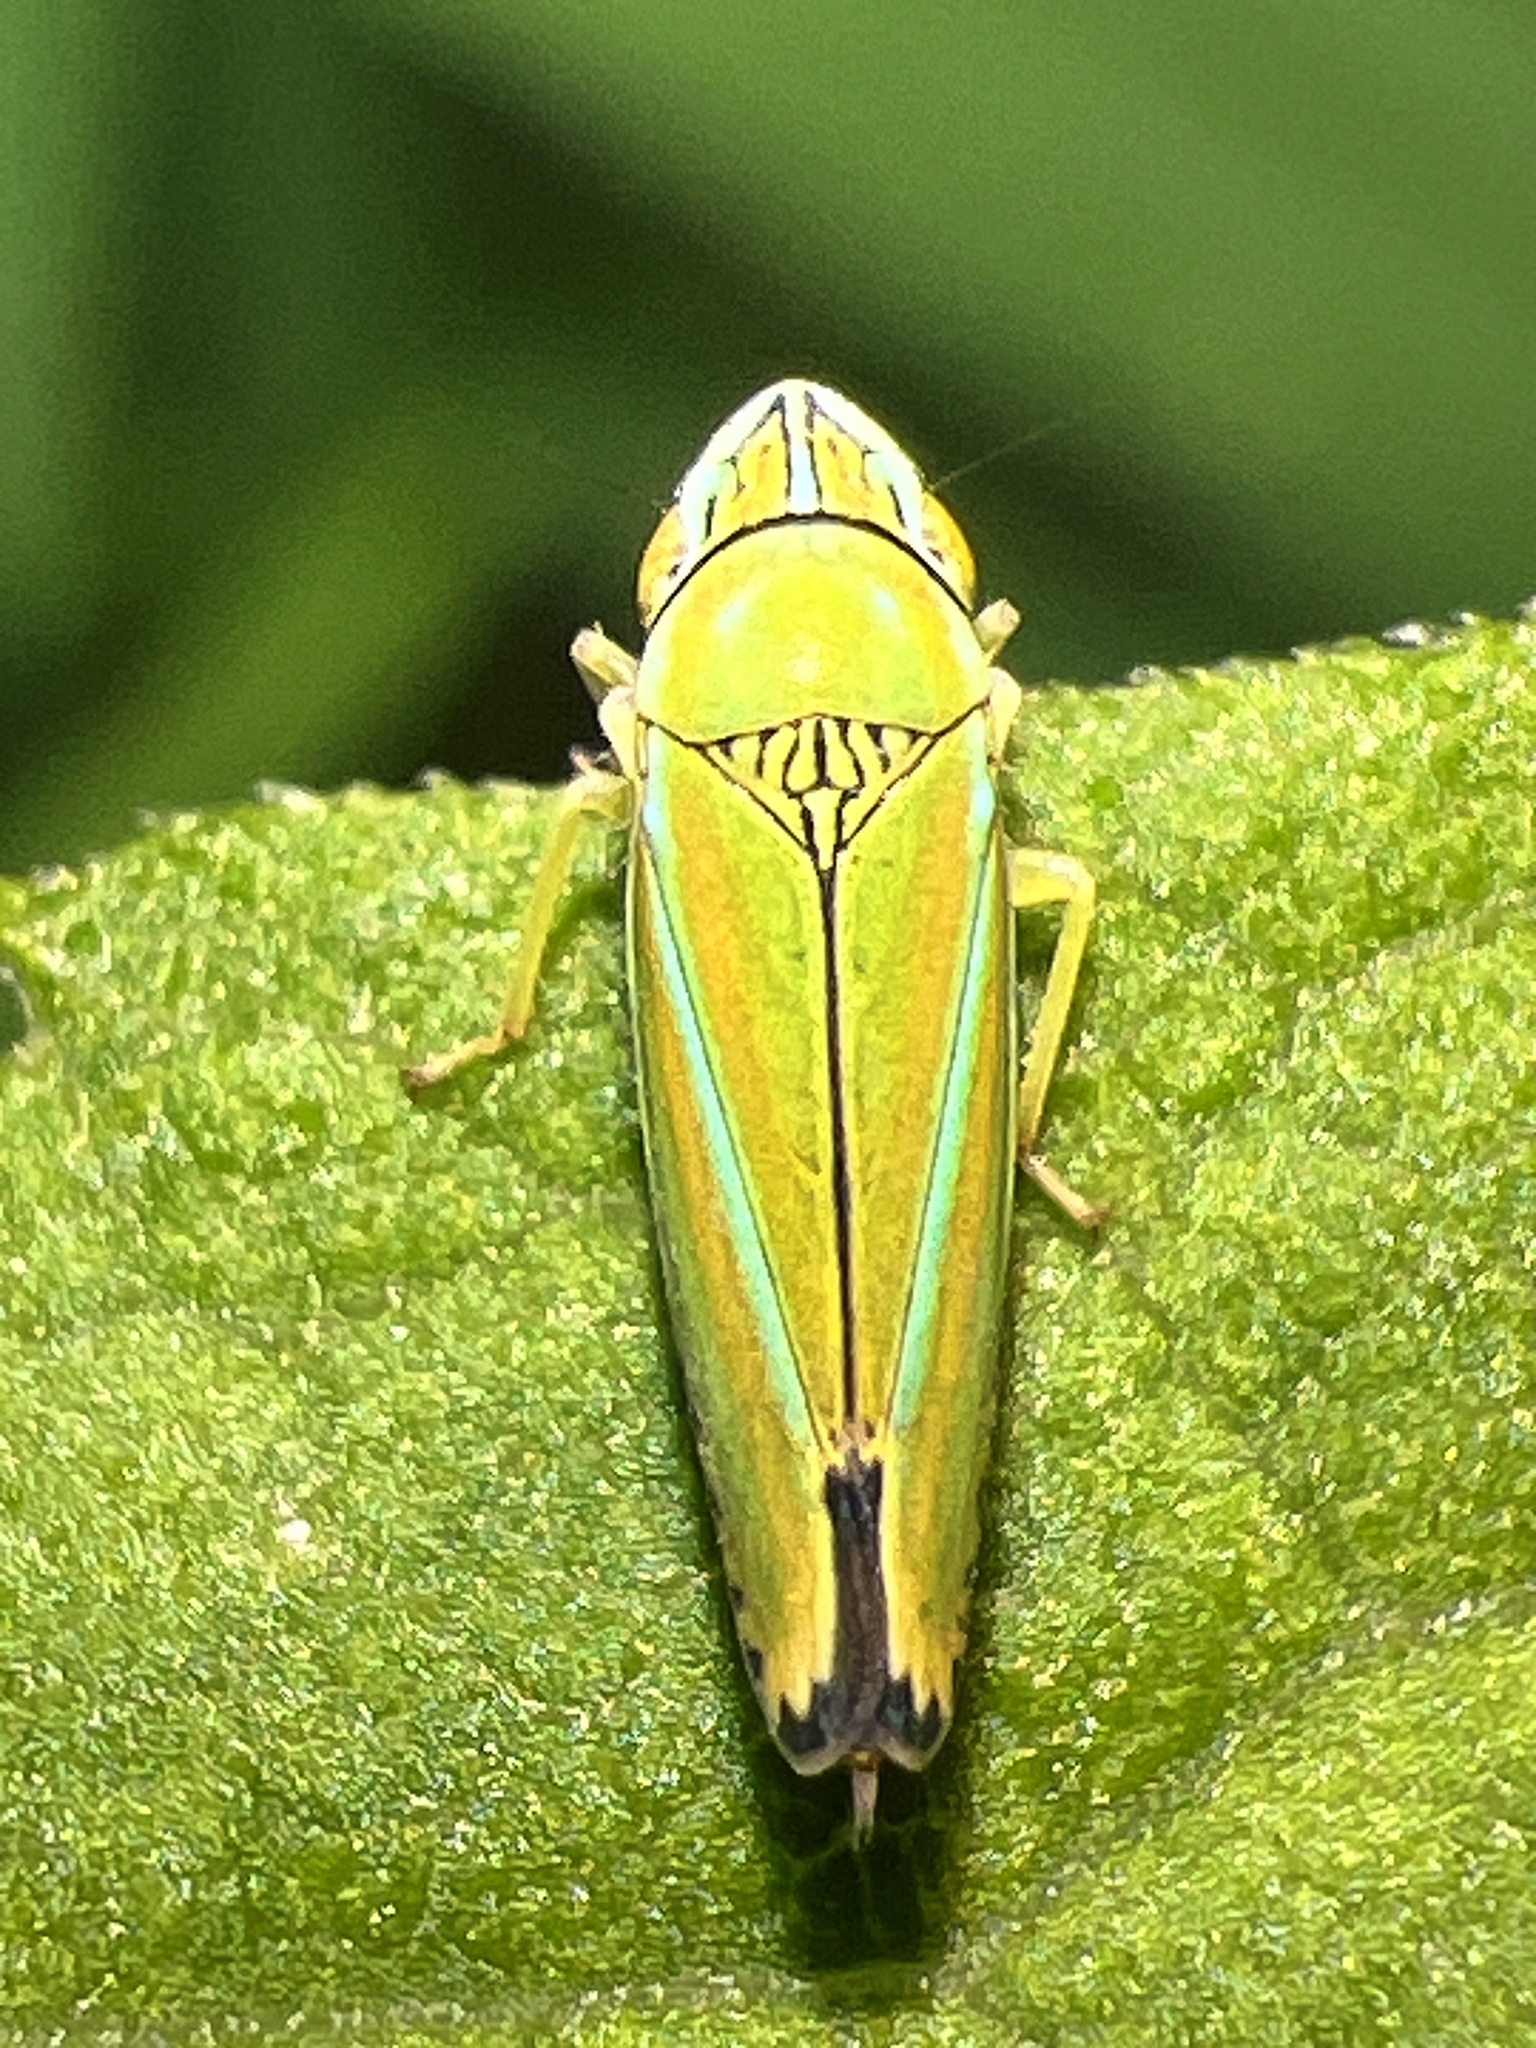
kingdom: Animalia
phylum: Arthropoda
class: Insecta
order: Hemiptera
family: Cicadellidae
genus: Graphocephala
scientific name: Graphocephala versuta
